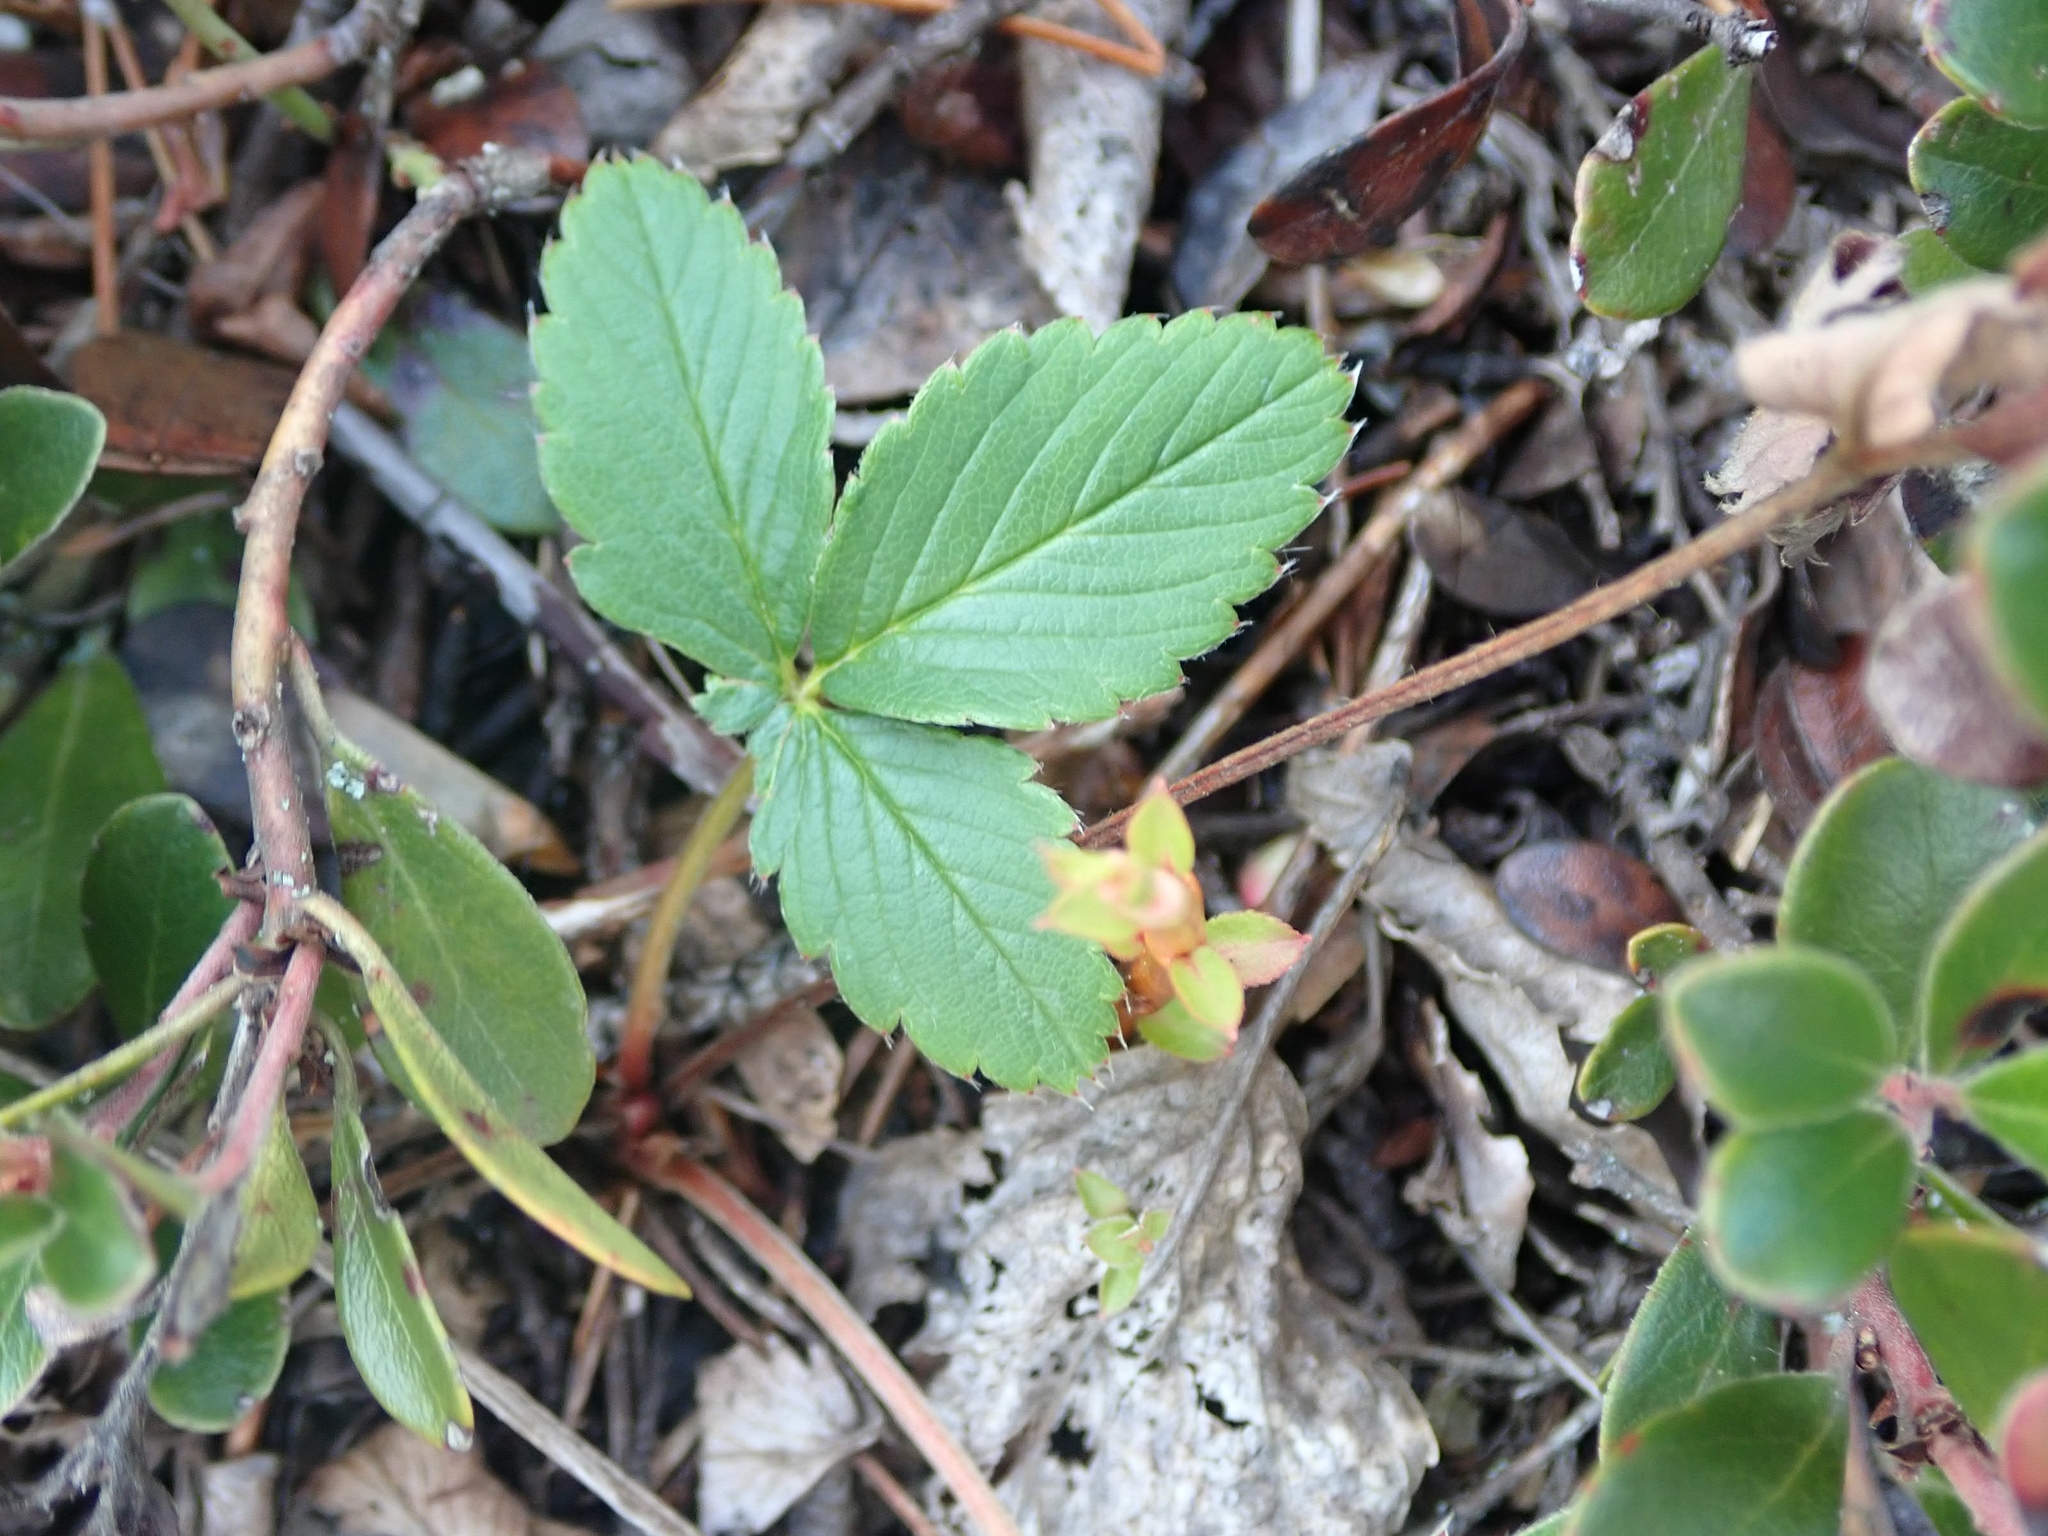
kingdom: Plantae
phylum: Tracheophyta
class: Magnoliopsida
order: Rosales
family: Rosaceae
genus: Fragaria
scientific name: Fragaria virginiana
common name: Thickleaved wild strawberry
